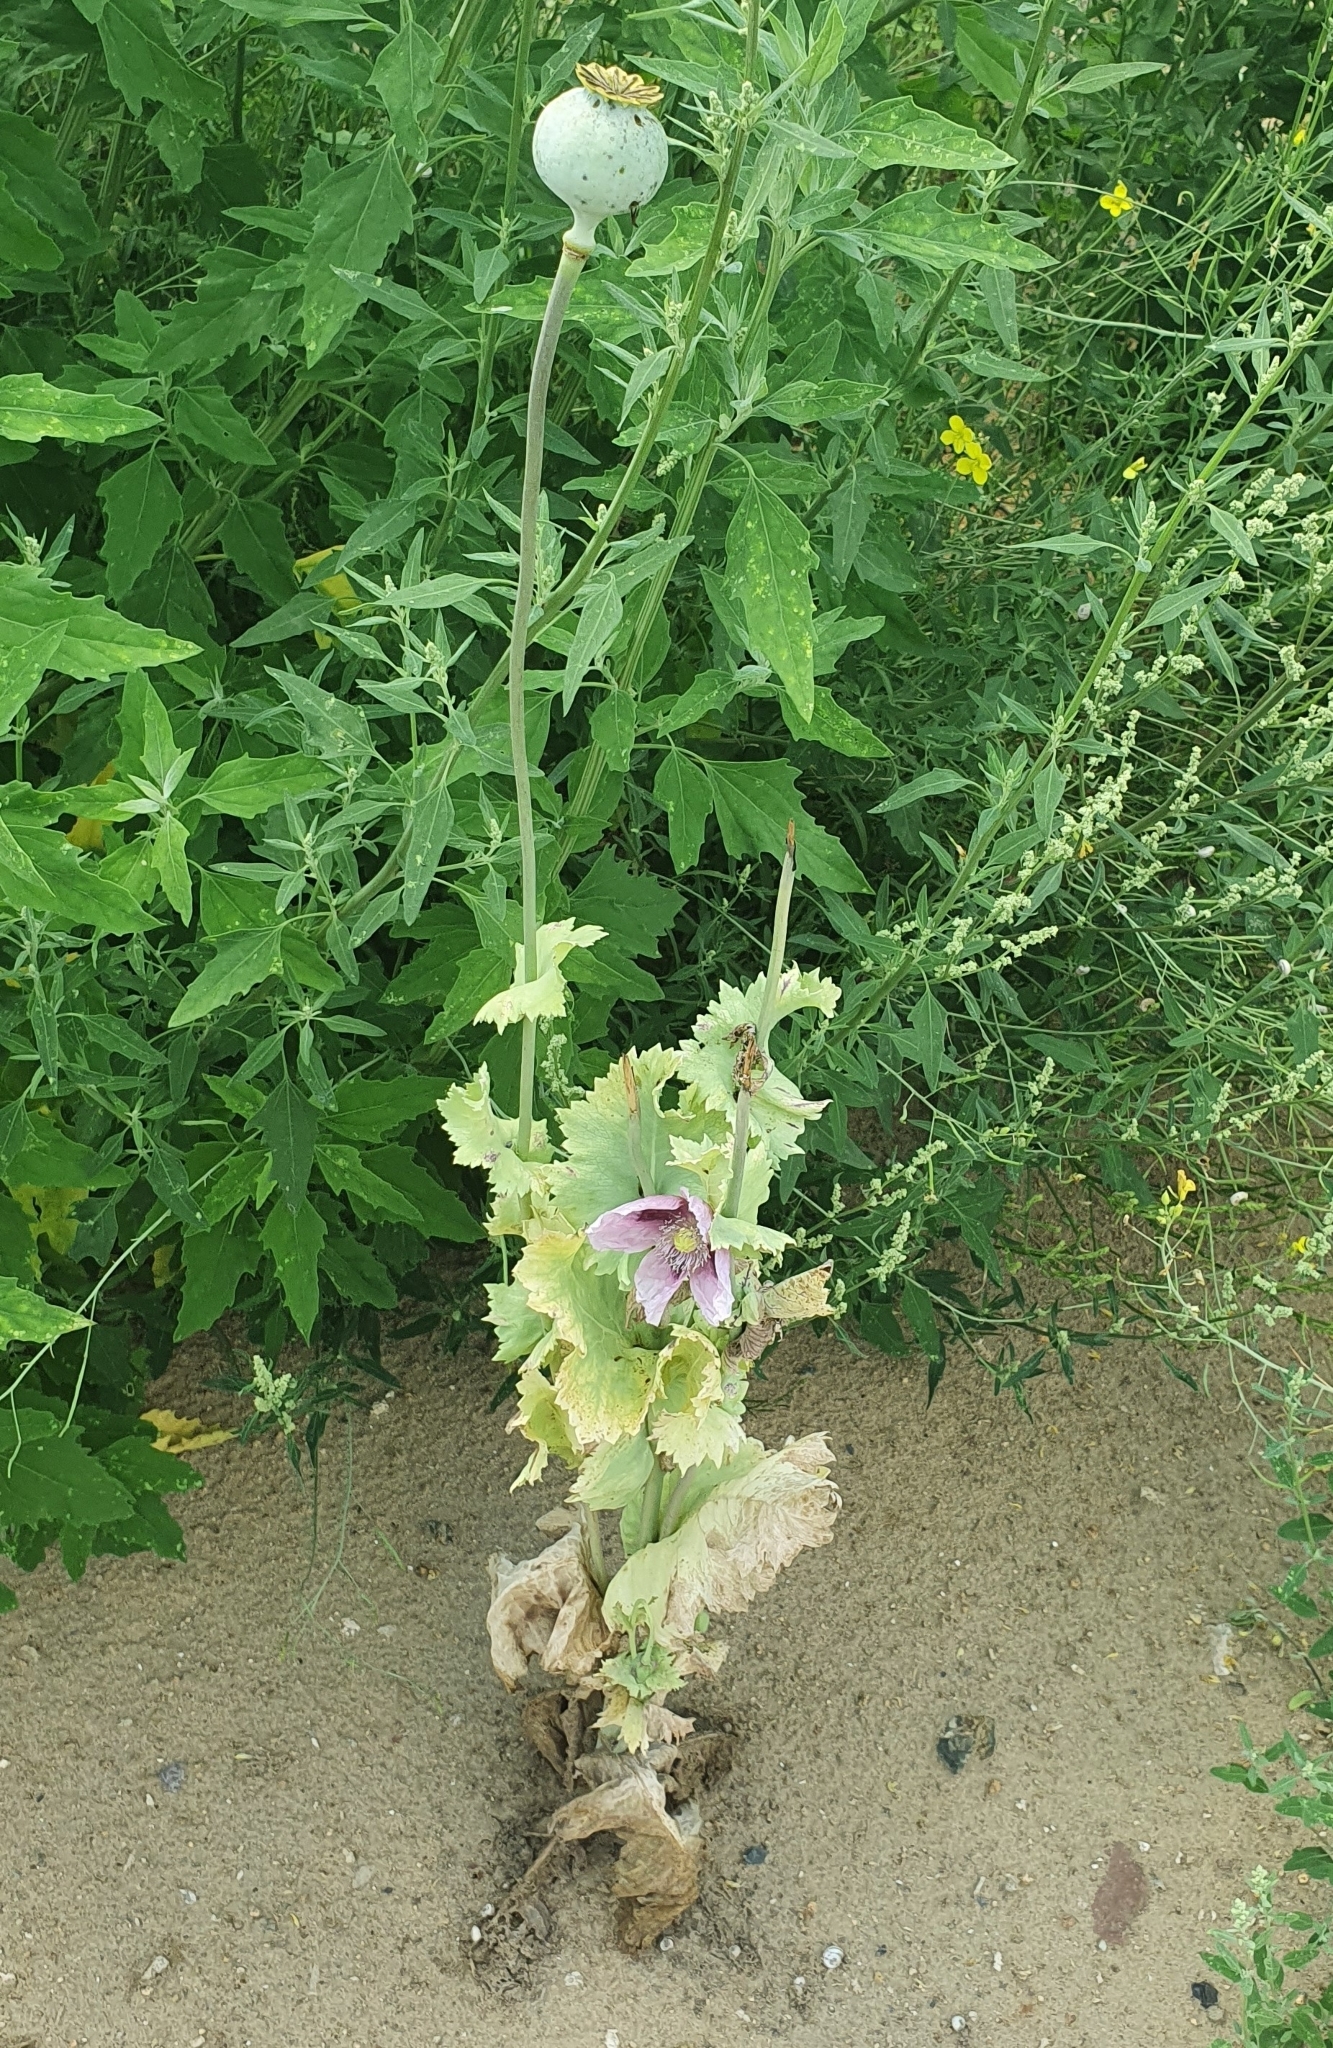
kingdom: Plantae
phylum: Tracheophyta
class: Magnoliopsida
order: Ranunculales
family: Papaveraceae
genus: Papaver
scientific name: Papaver somniferum
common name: Opium poppy
